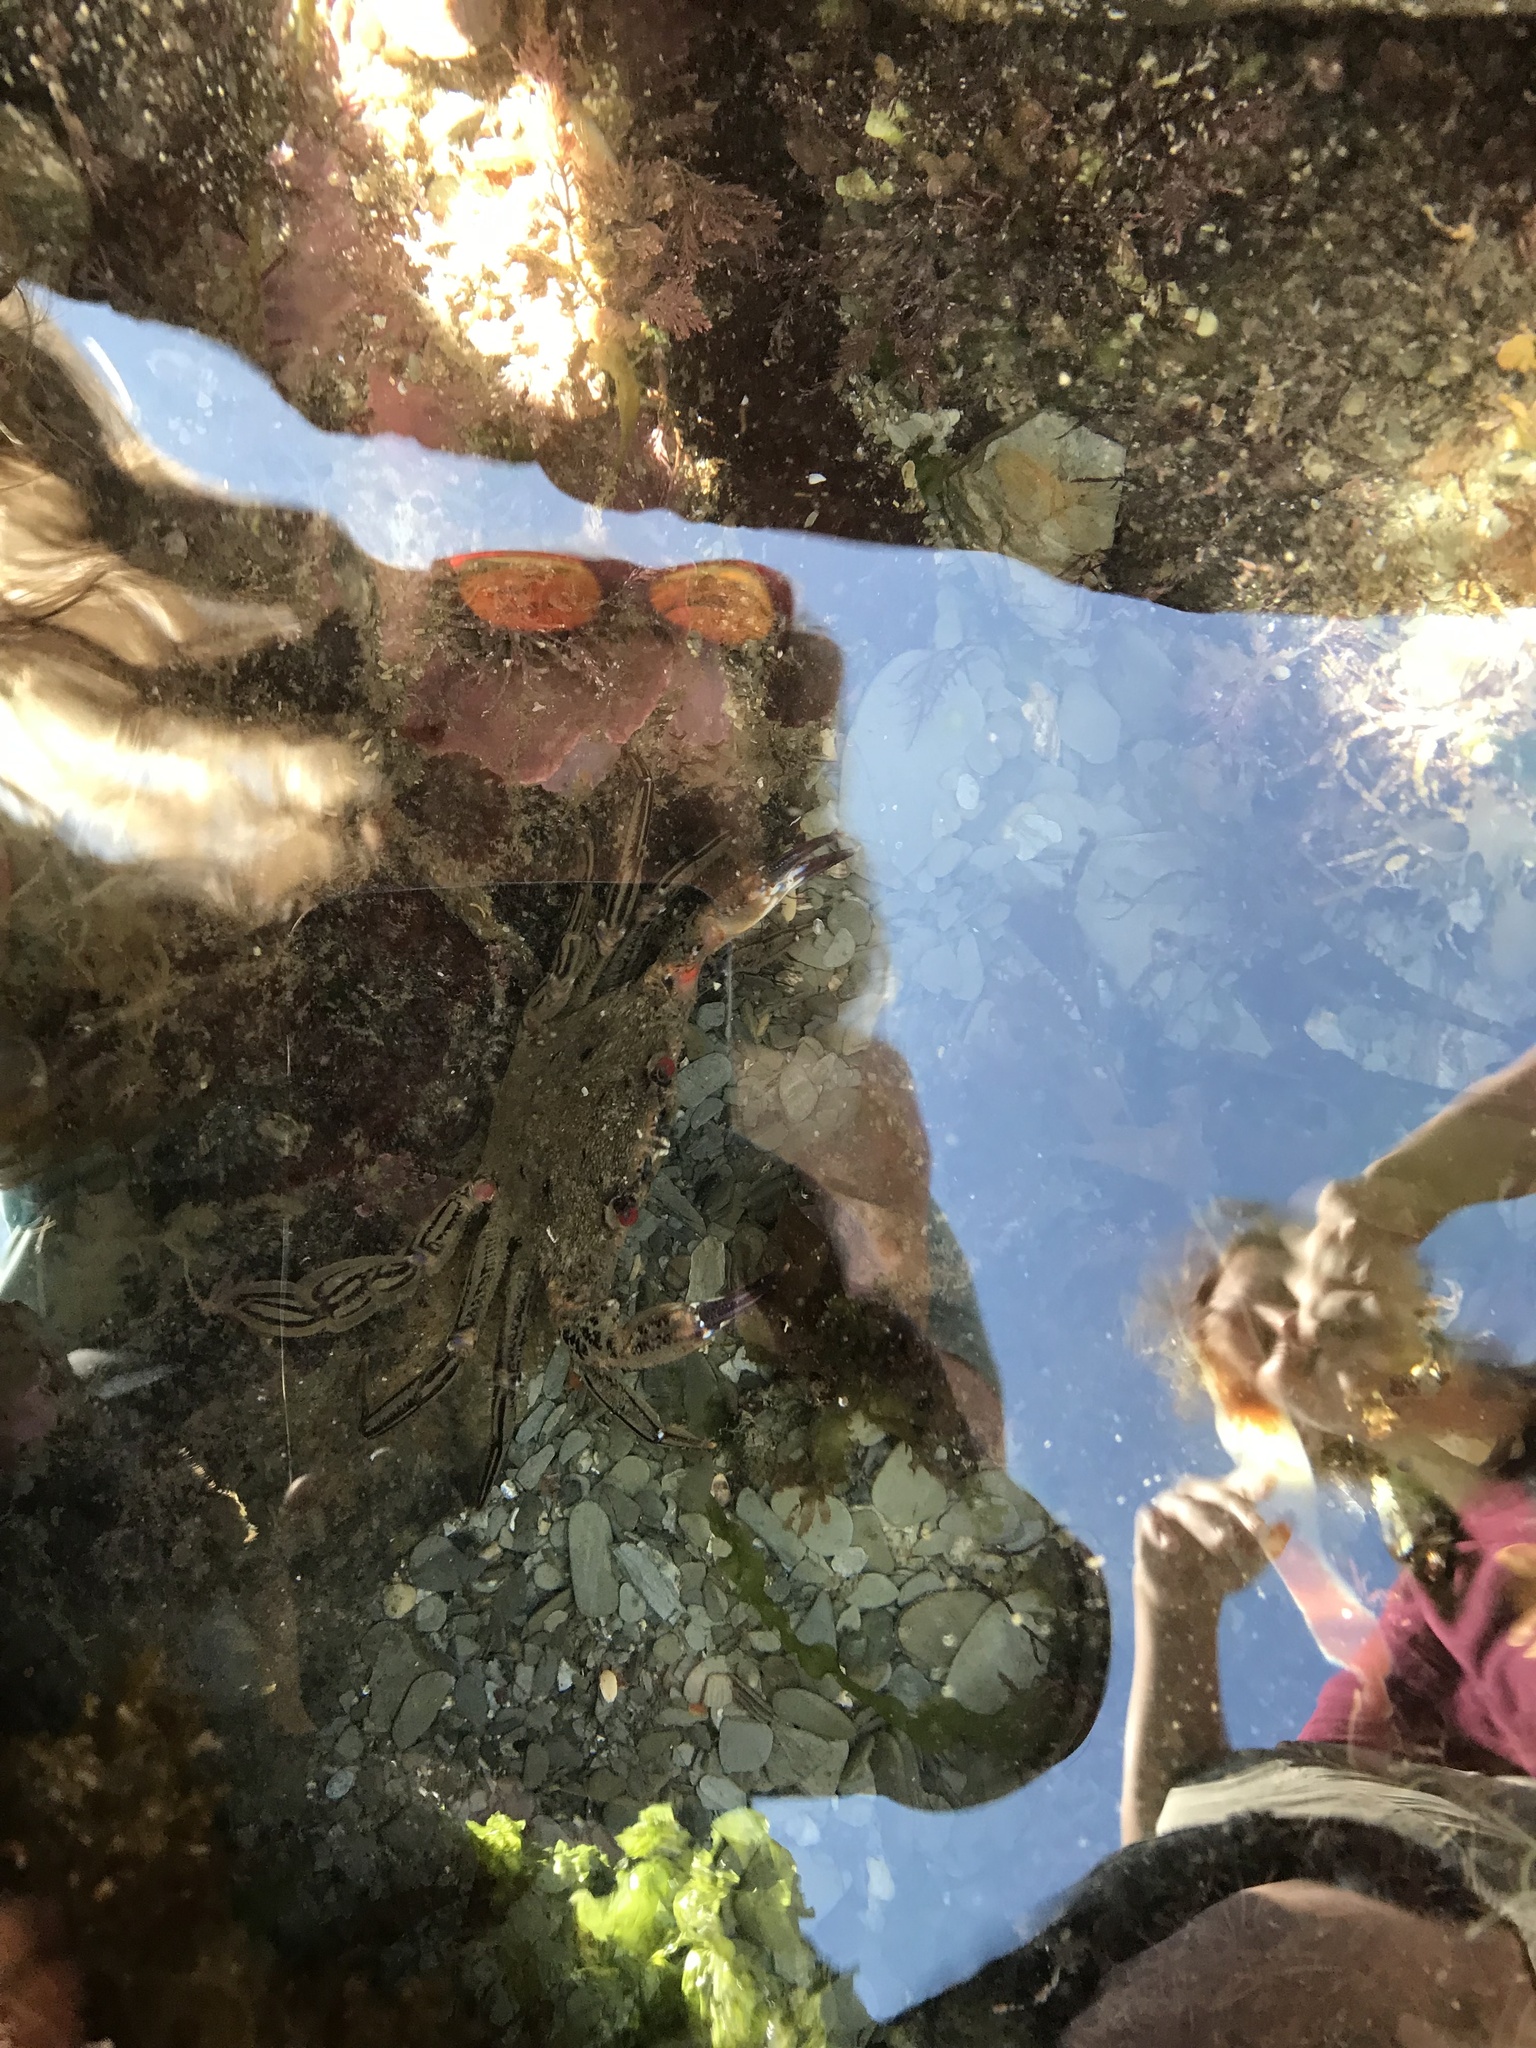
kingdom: Animalia
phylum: Arthropoda
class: Malacostraca
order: Decapoda
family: Polybiidae
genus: Necora
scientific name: Necora puber
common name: Velvet swimming crab
